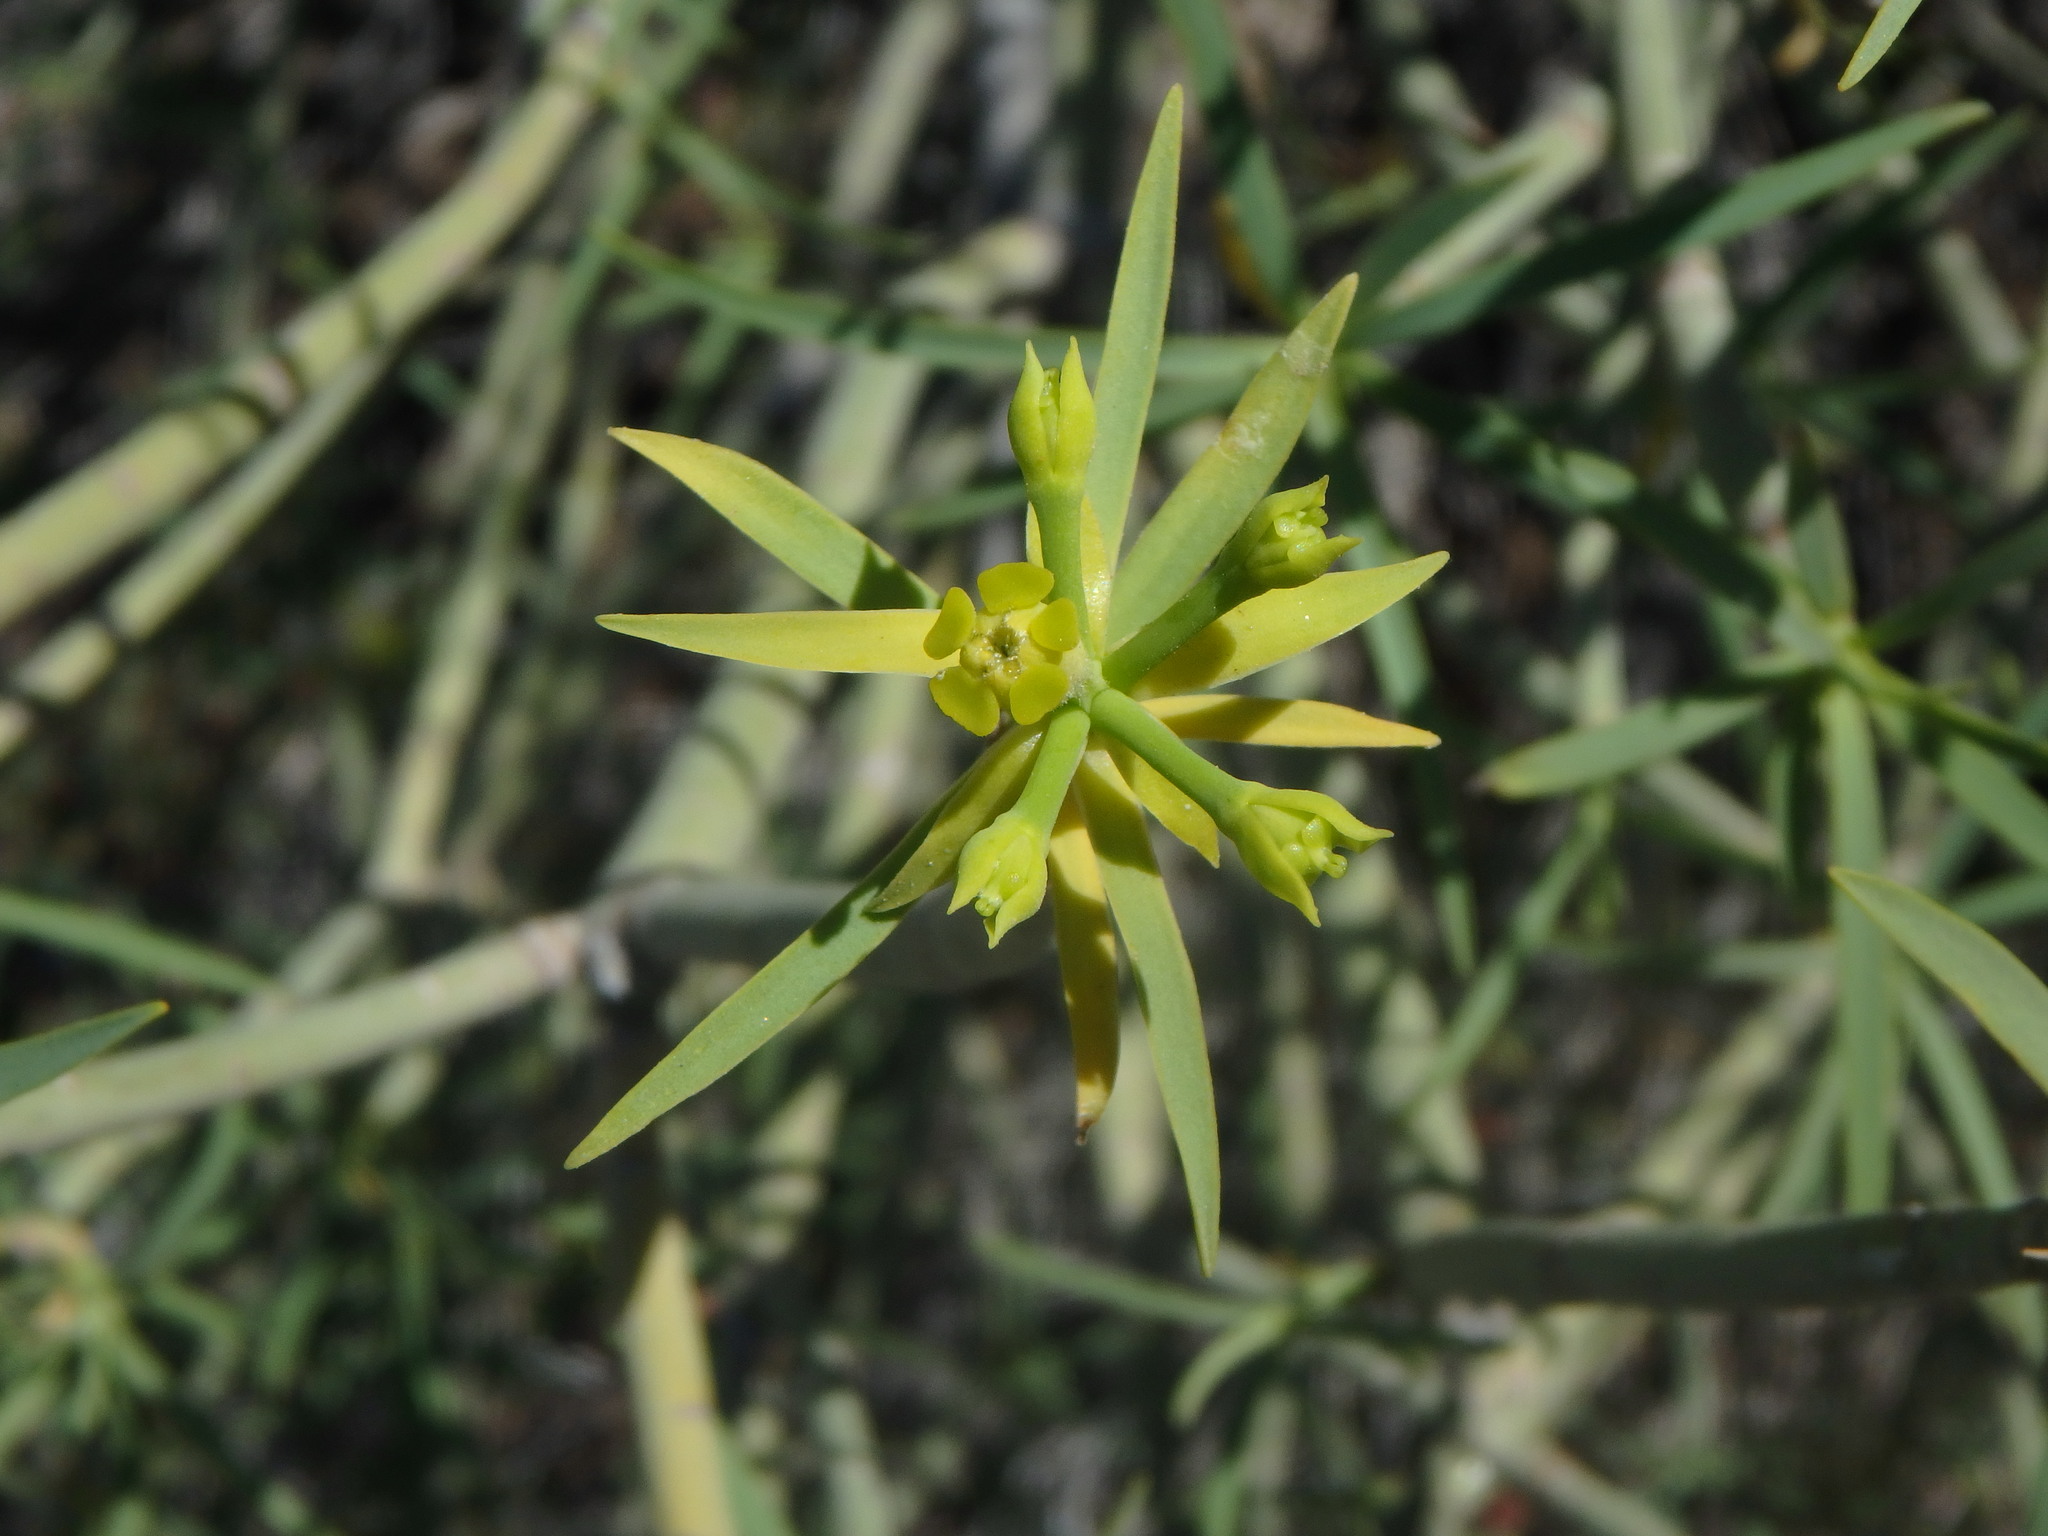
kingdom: Plantae
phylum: Tracheophyta
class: Magnoliopsida
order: Malpighiales
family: Euphorbiaceae
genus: Euphorbia
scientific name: Euphorbia lamarckii
